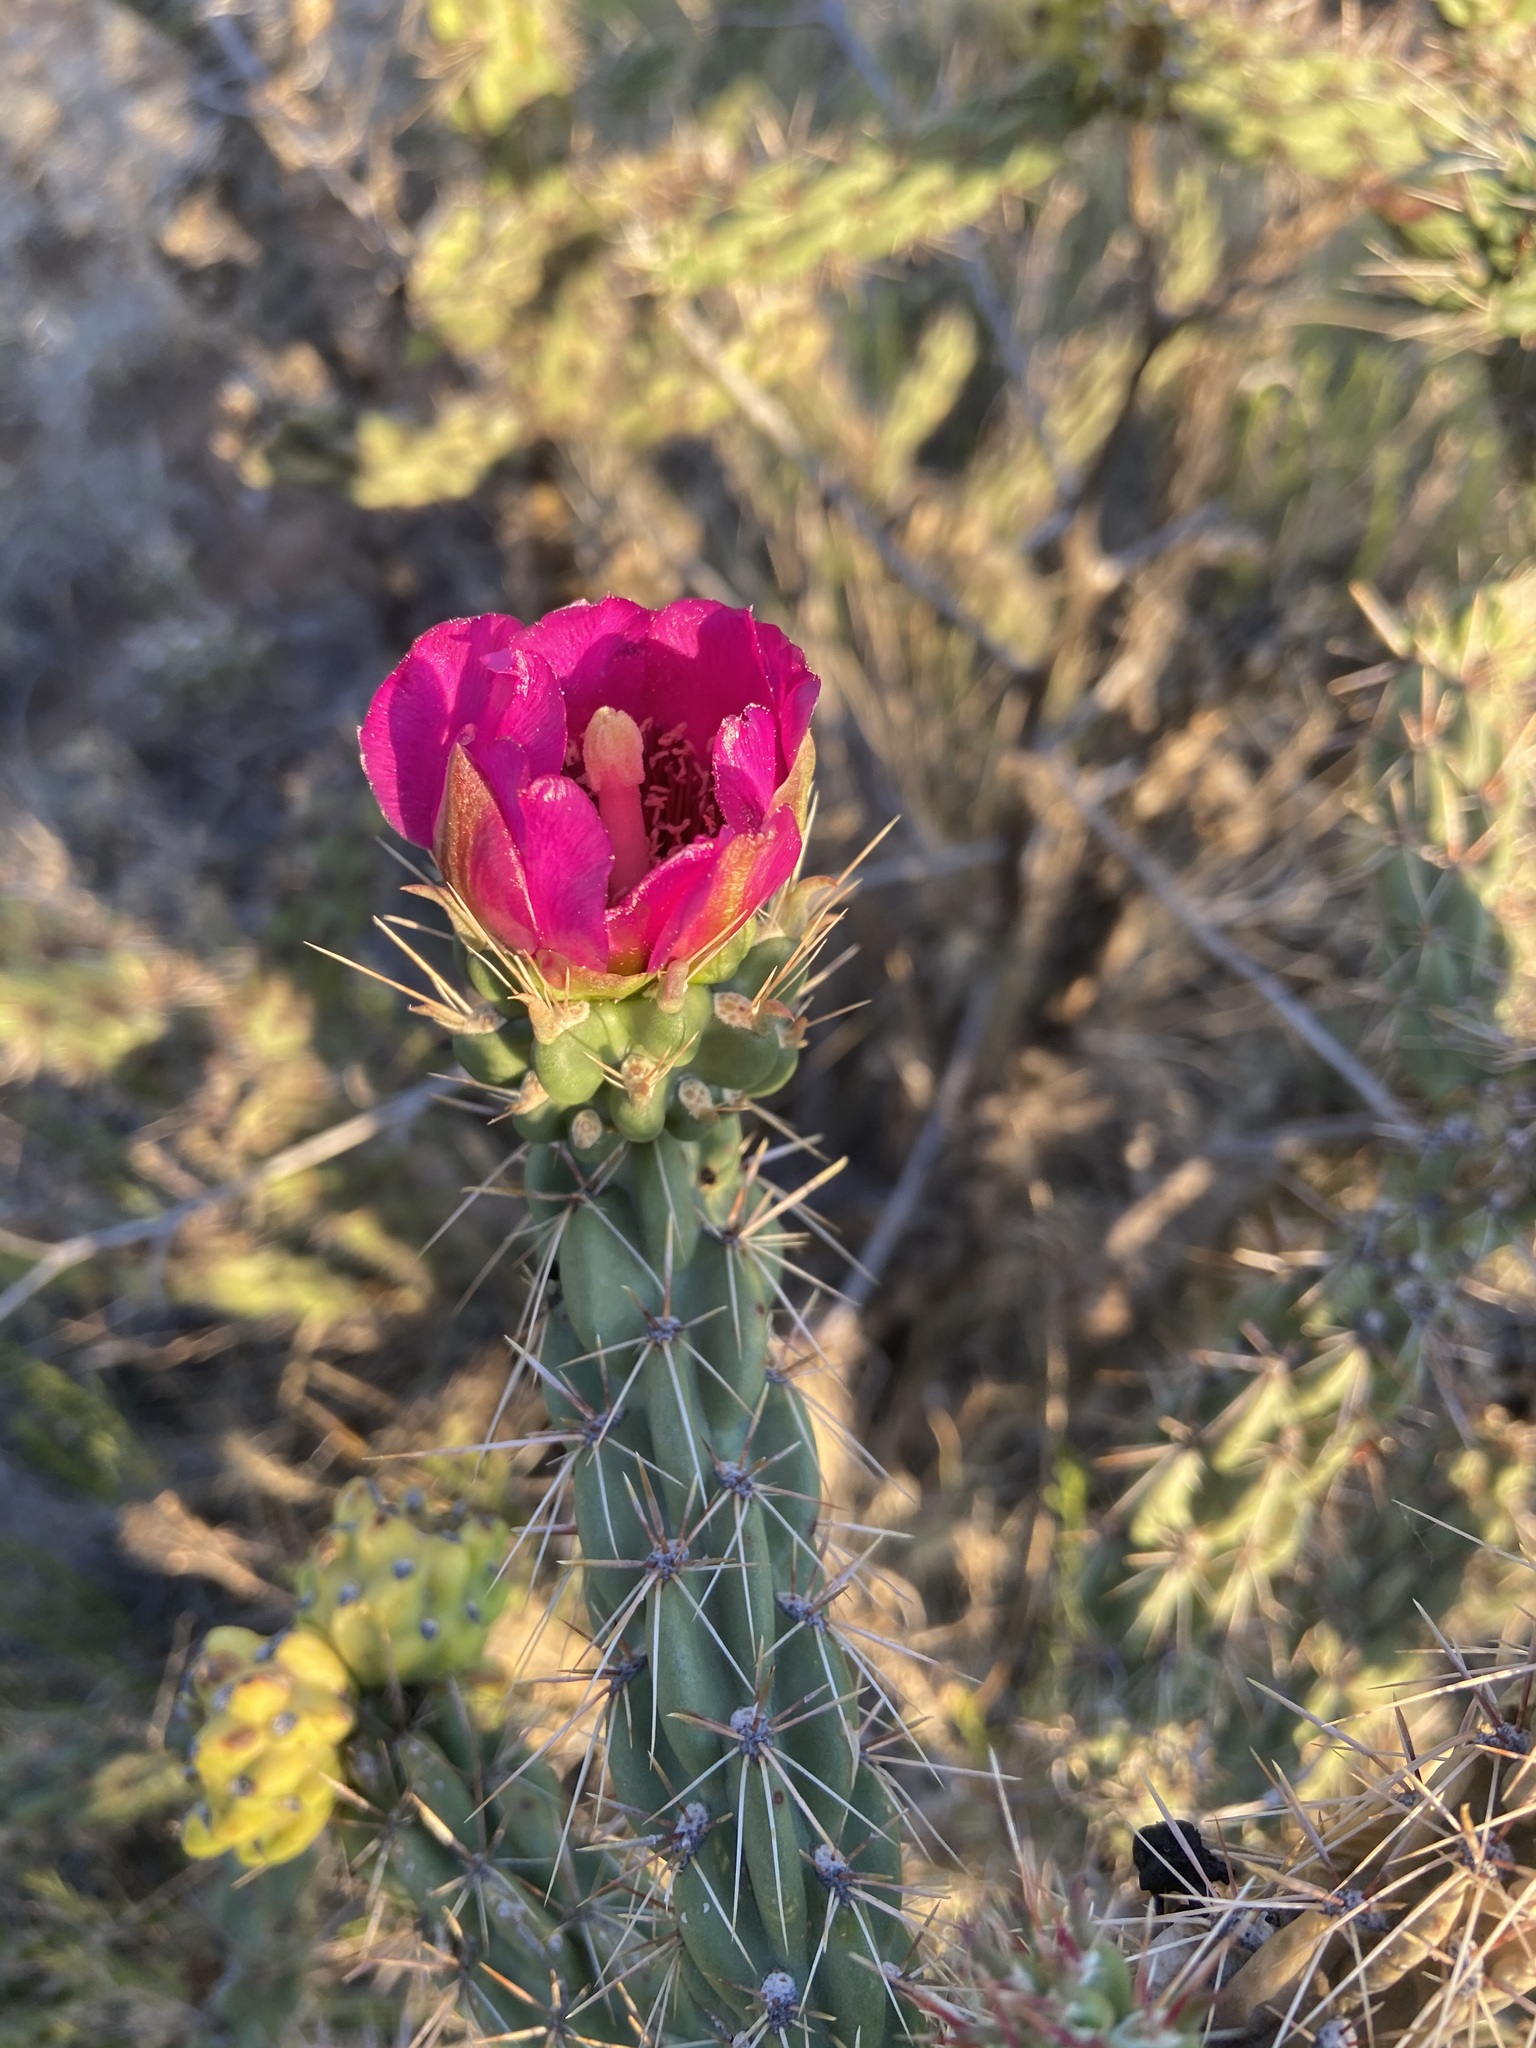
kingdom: Plantae
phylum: Tracheophyta
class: Magnoliopsida
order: Caryophyllales
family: Cactaceae
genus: Cylindropuntia
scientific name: Cylindropuntia imbricata
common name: Candelabrum cactus
